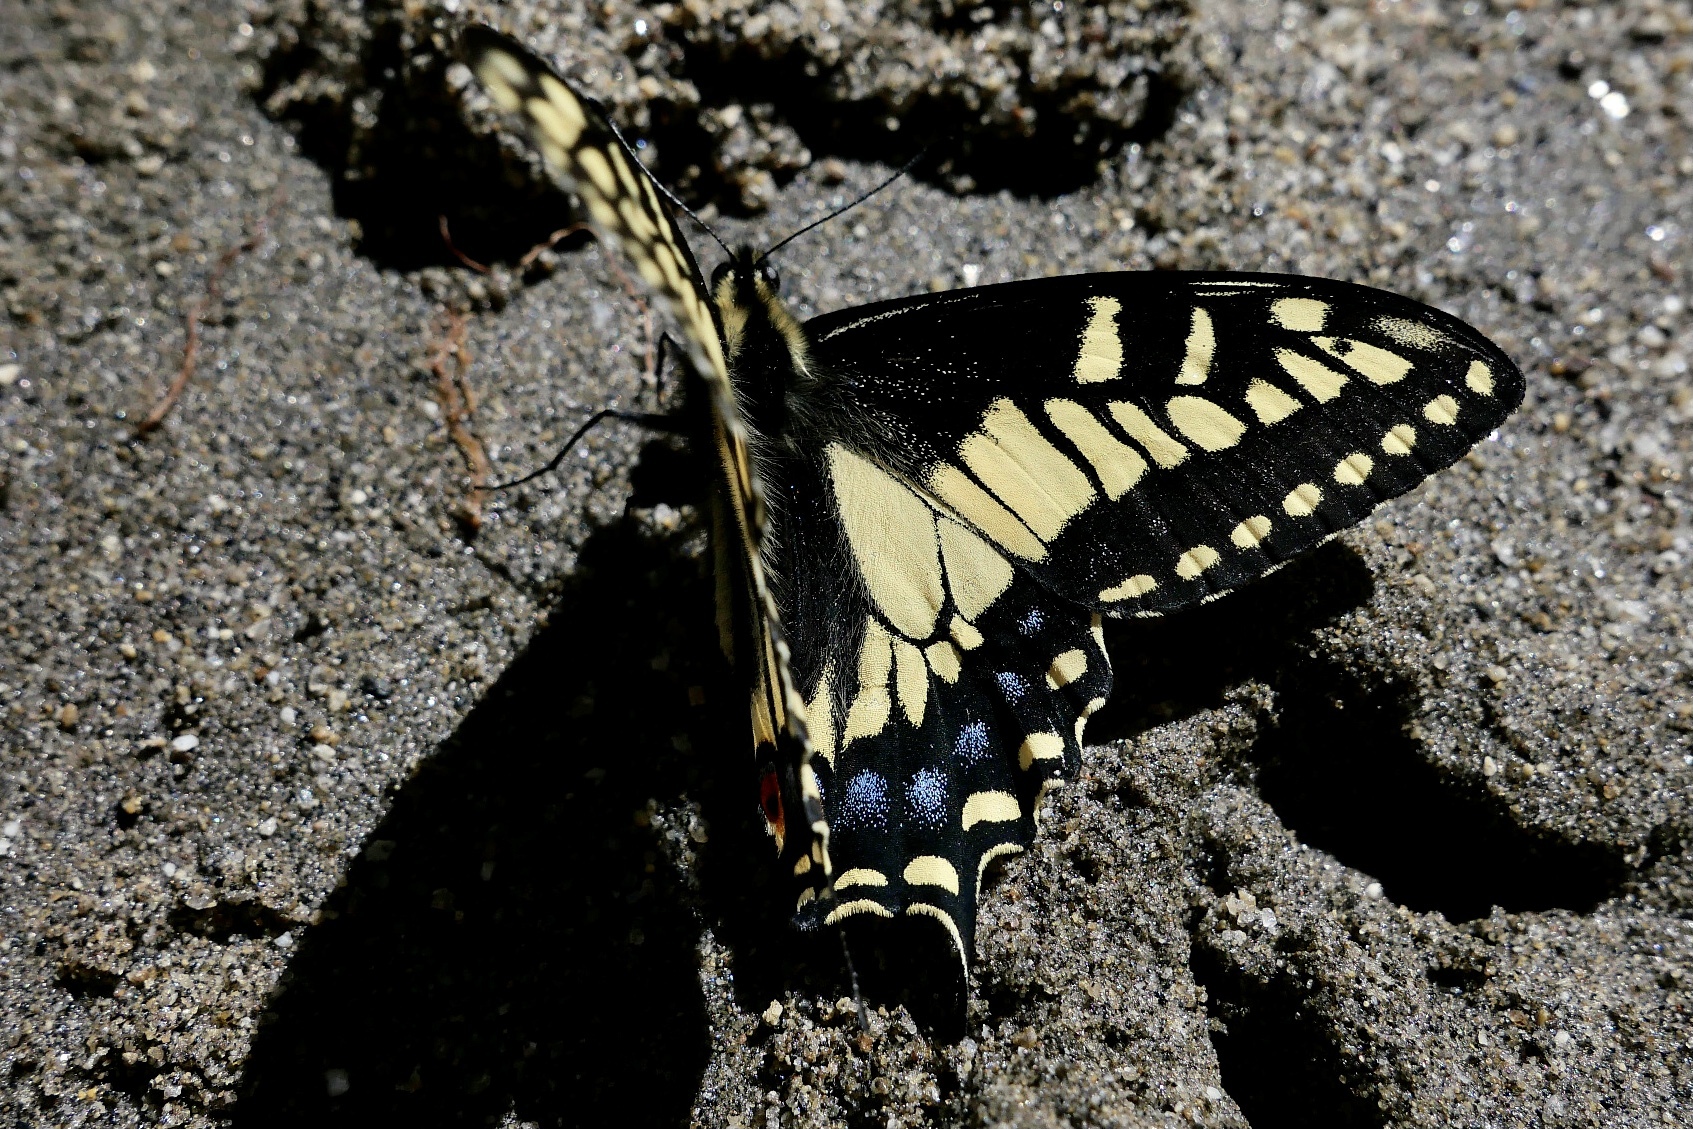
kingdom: Animalia
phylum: Arthropoda
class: Insecta
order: Lepidoptera
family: Papilionidae
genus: Papilio
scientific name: Papilio zelicaon
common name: Anise swallowtail
